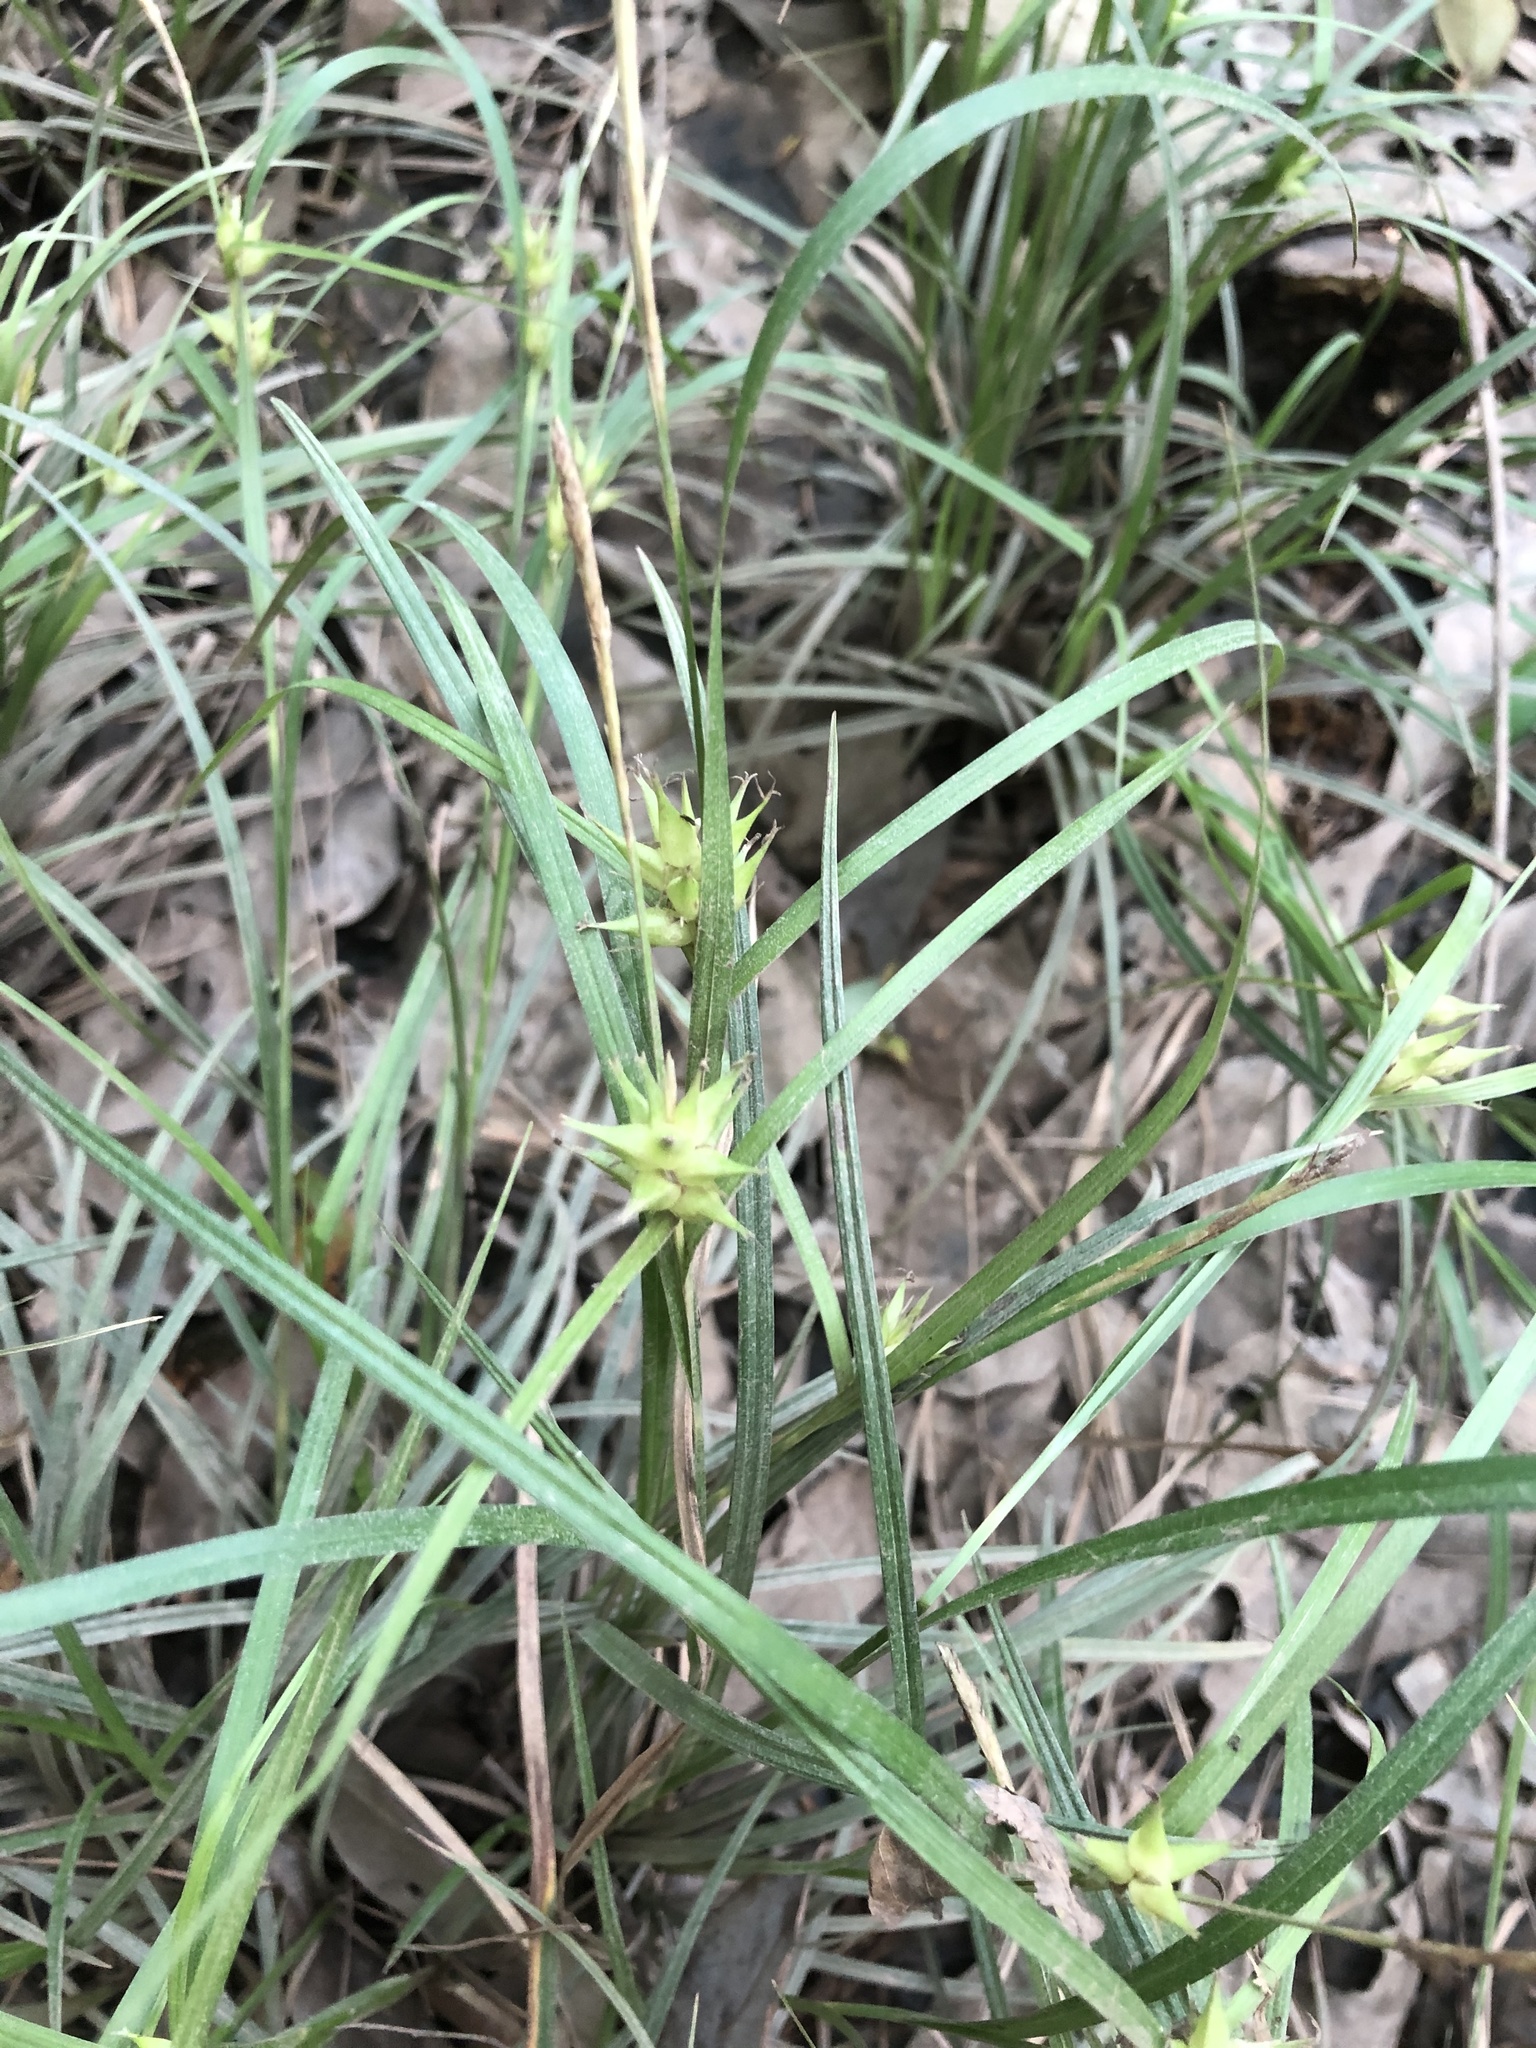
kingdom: Plantae
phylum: Tracheophyta
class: Liliopsida
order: Poales
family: Cyperaceae
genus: Carex
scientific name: Carex intumescens
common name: Greater bladder sedge
